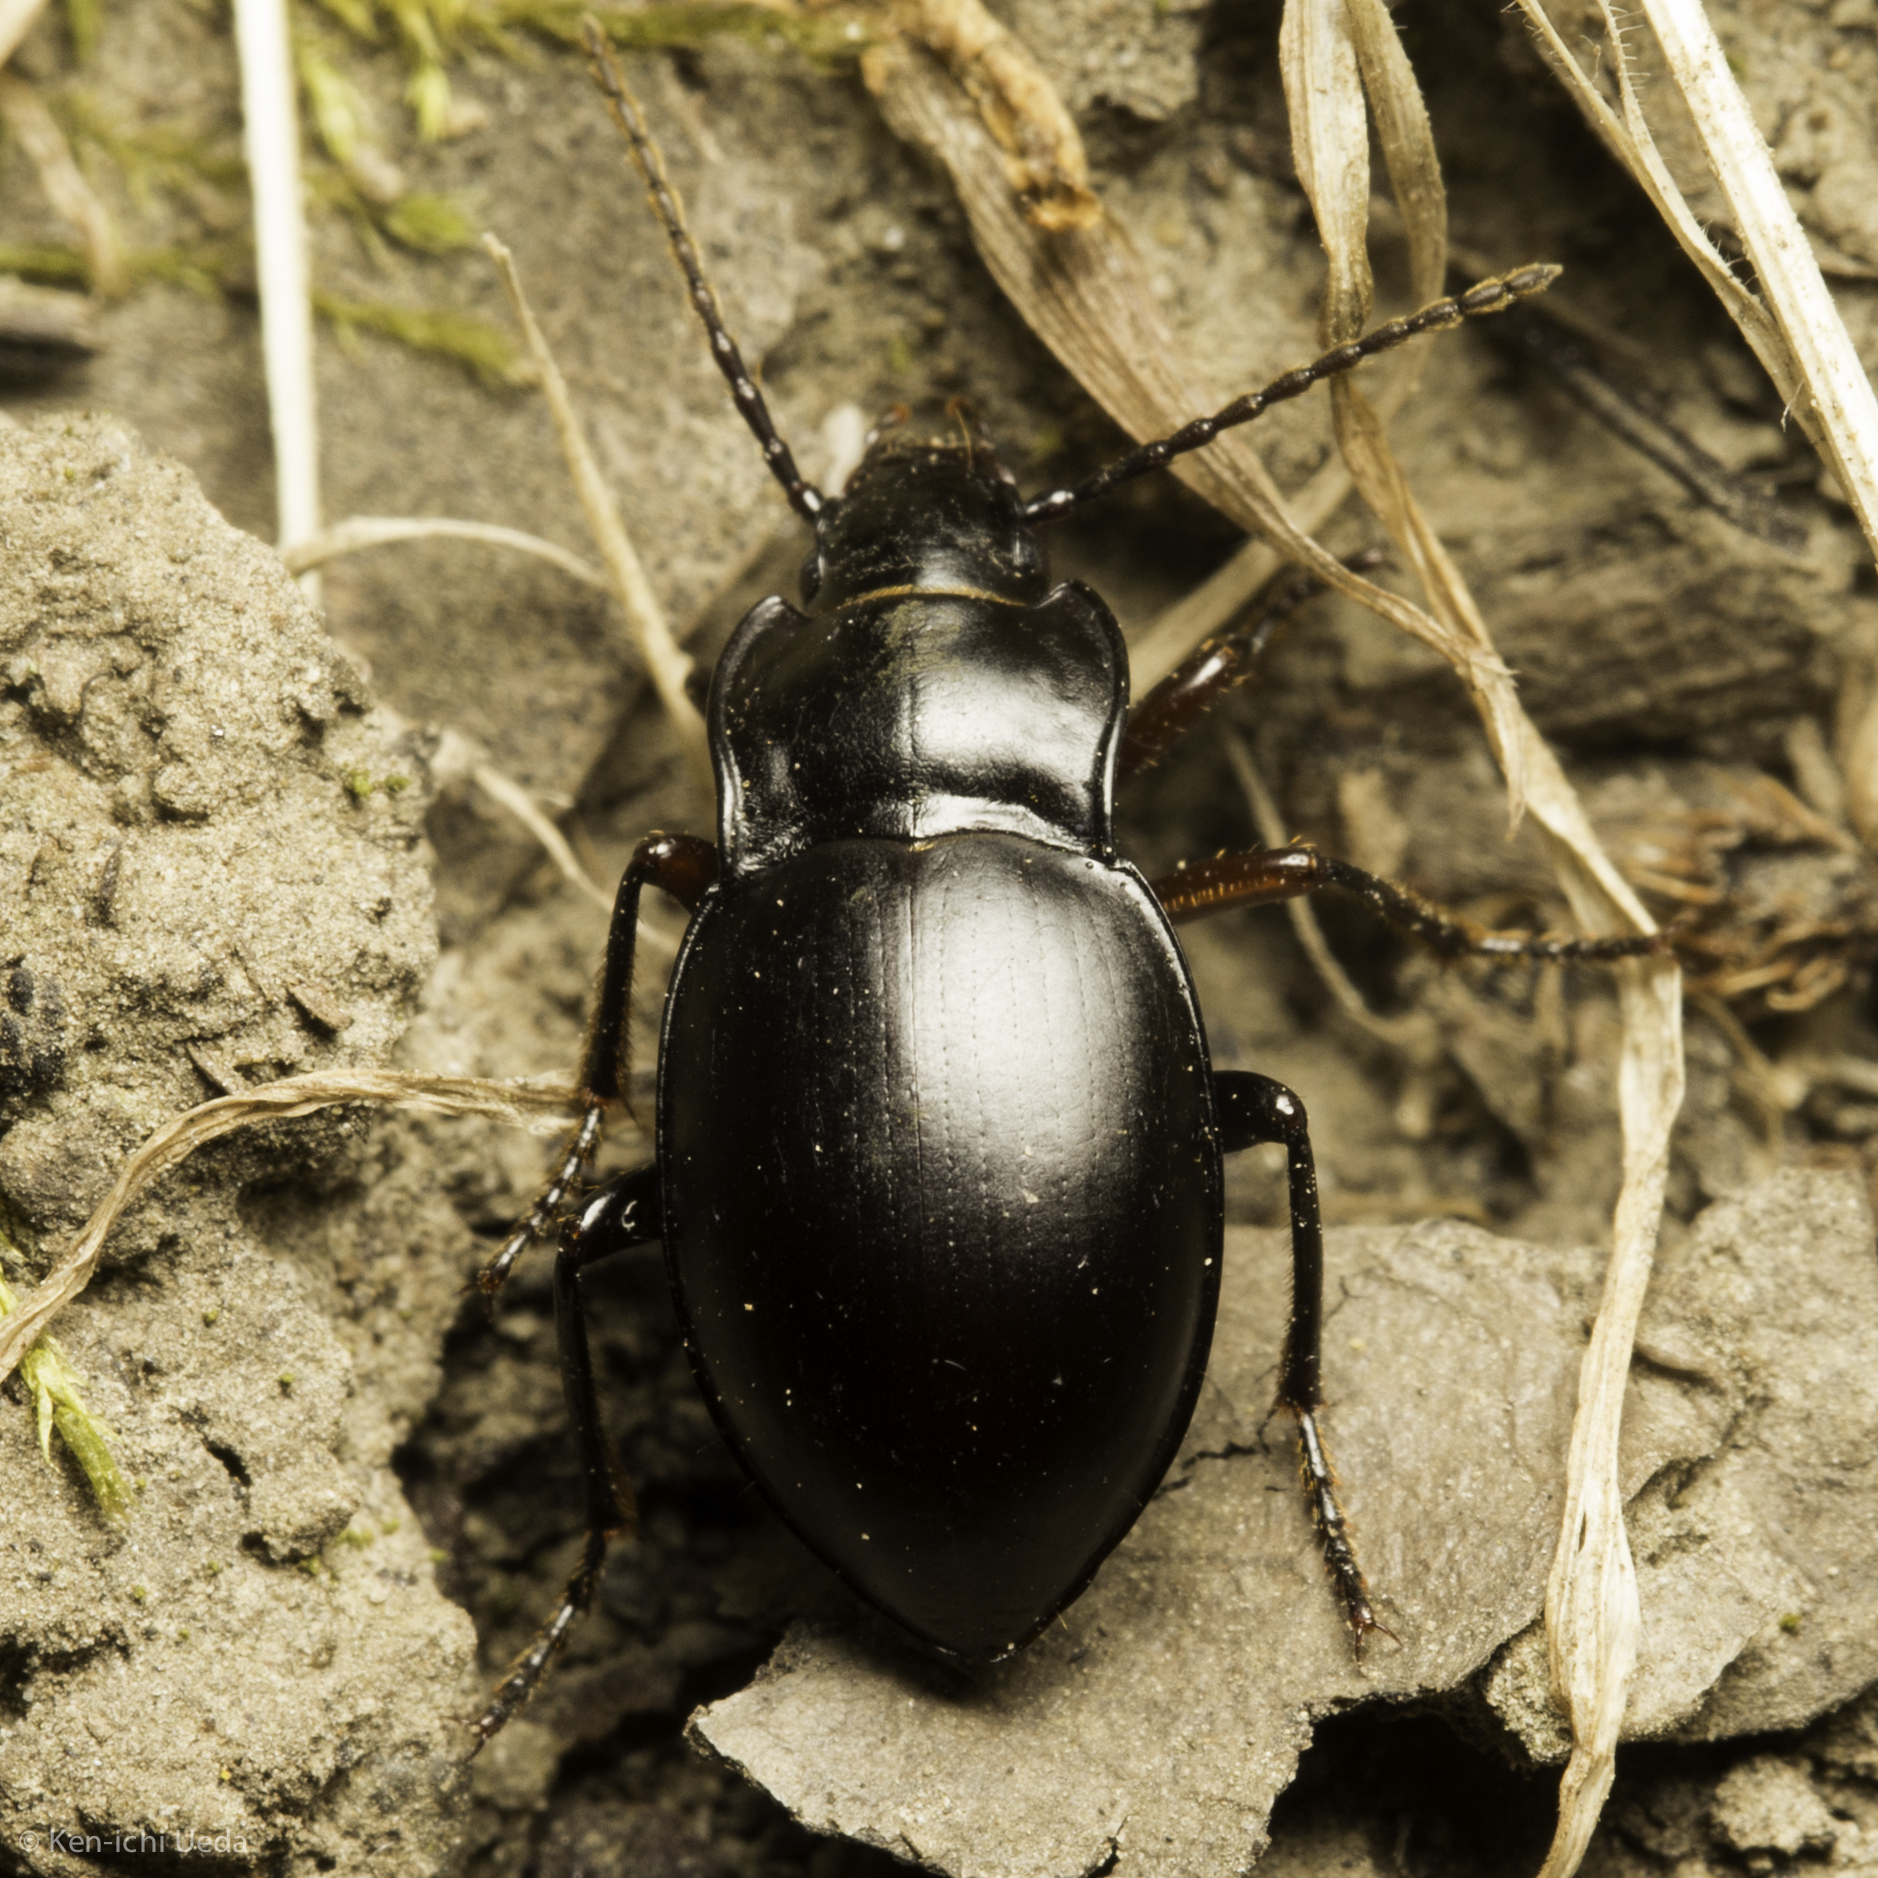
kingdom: Animalia
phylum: Arthropoda
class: Insecta
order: Coleoptera
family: Carabidae
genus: Metrius
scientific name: Metrius contractus
